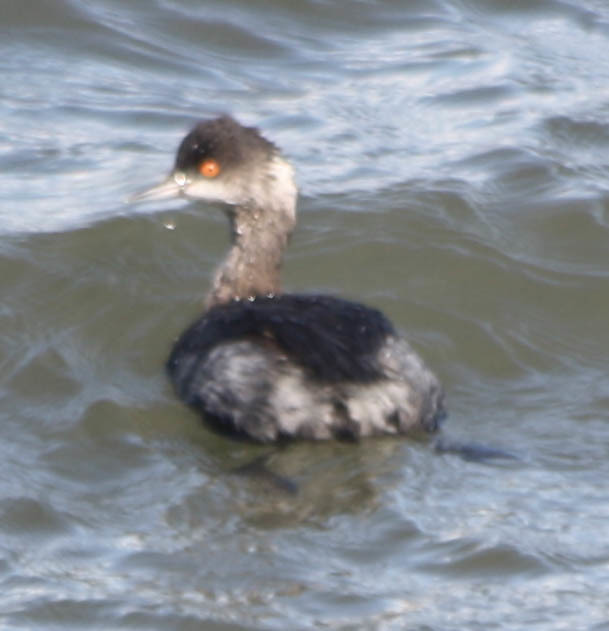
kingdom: Animalia
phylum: Chordata
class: Aves
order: Podicipediformes
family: Podicipedidae
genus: Podiceps
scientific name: Podiceps nigricollis
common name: Black-necked grebe
